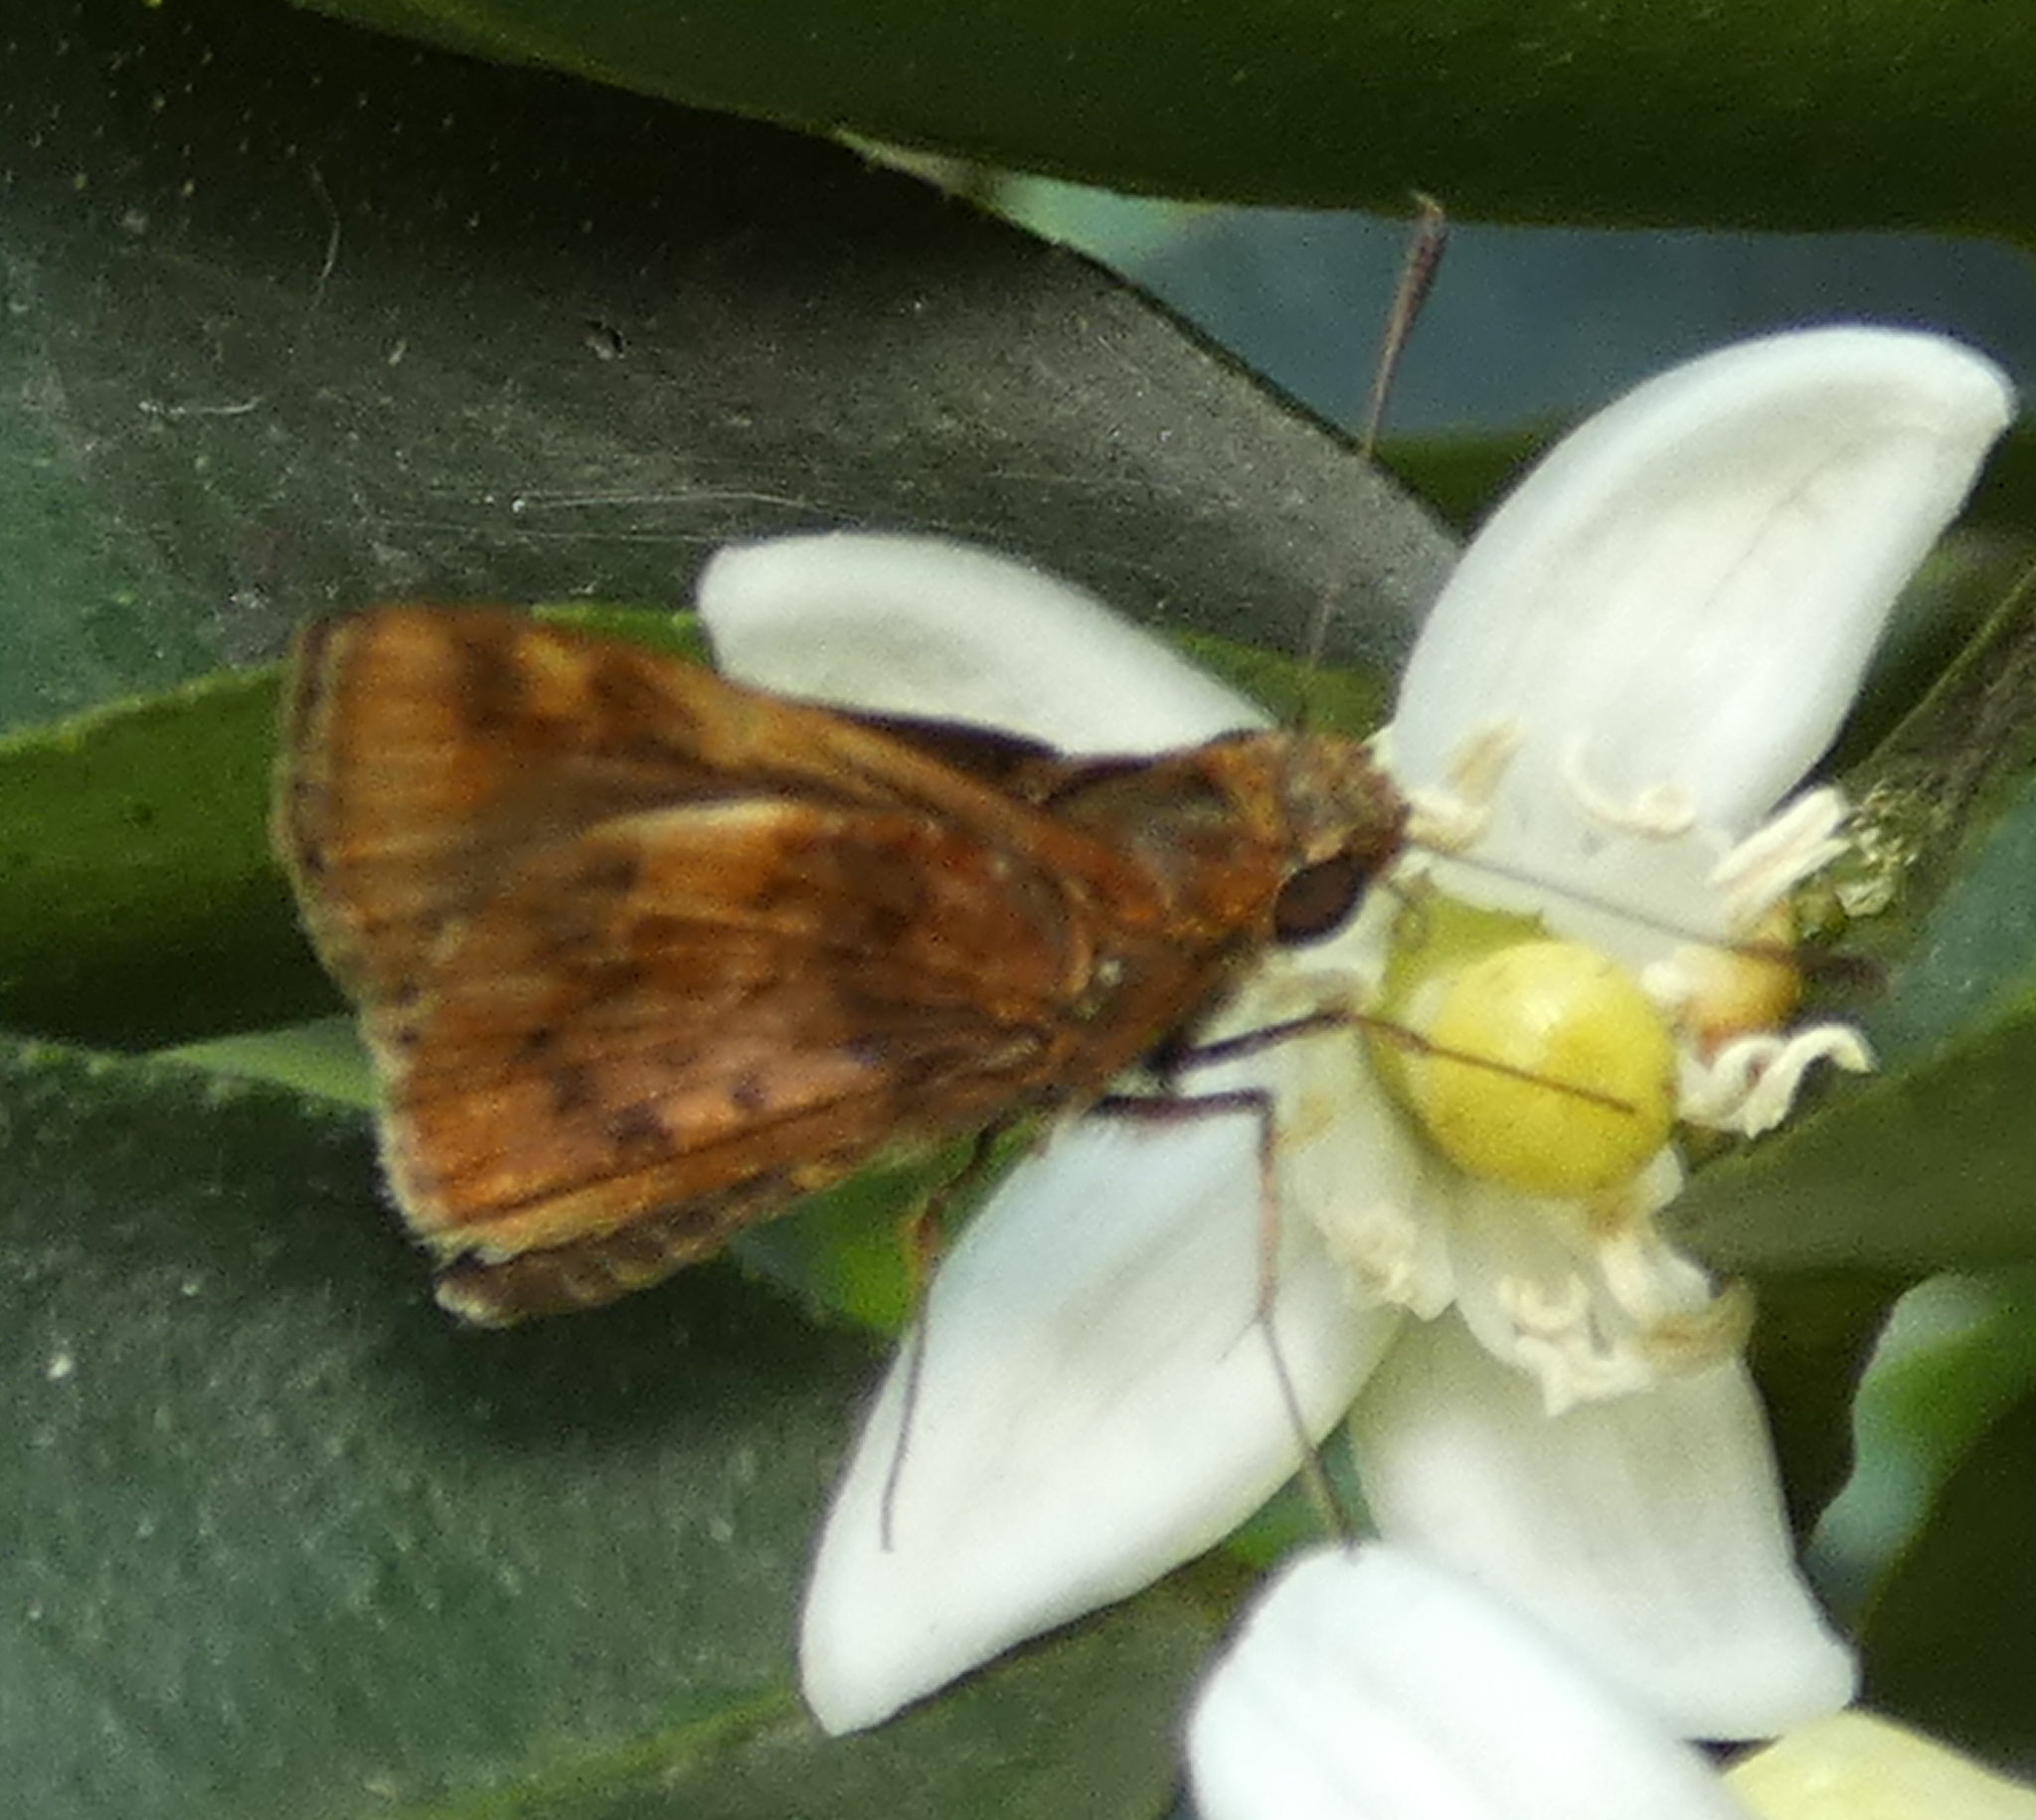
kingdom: Animalia
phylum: Arthropoda
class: Insecta
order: Lepidoptera
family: Hesperiidae
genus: Moeris
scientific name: Moeris striga
